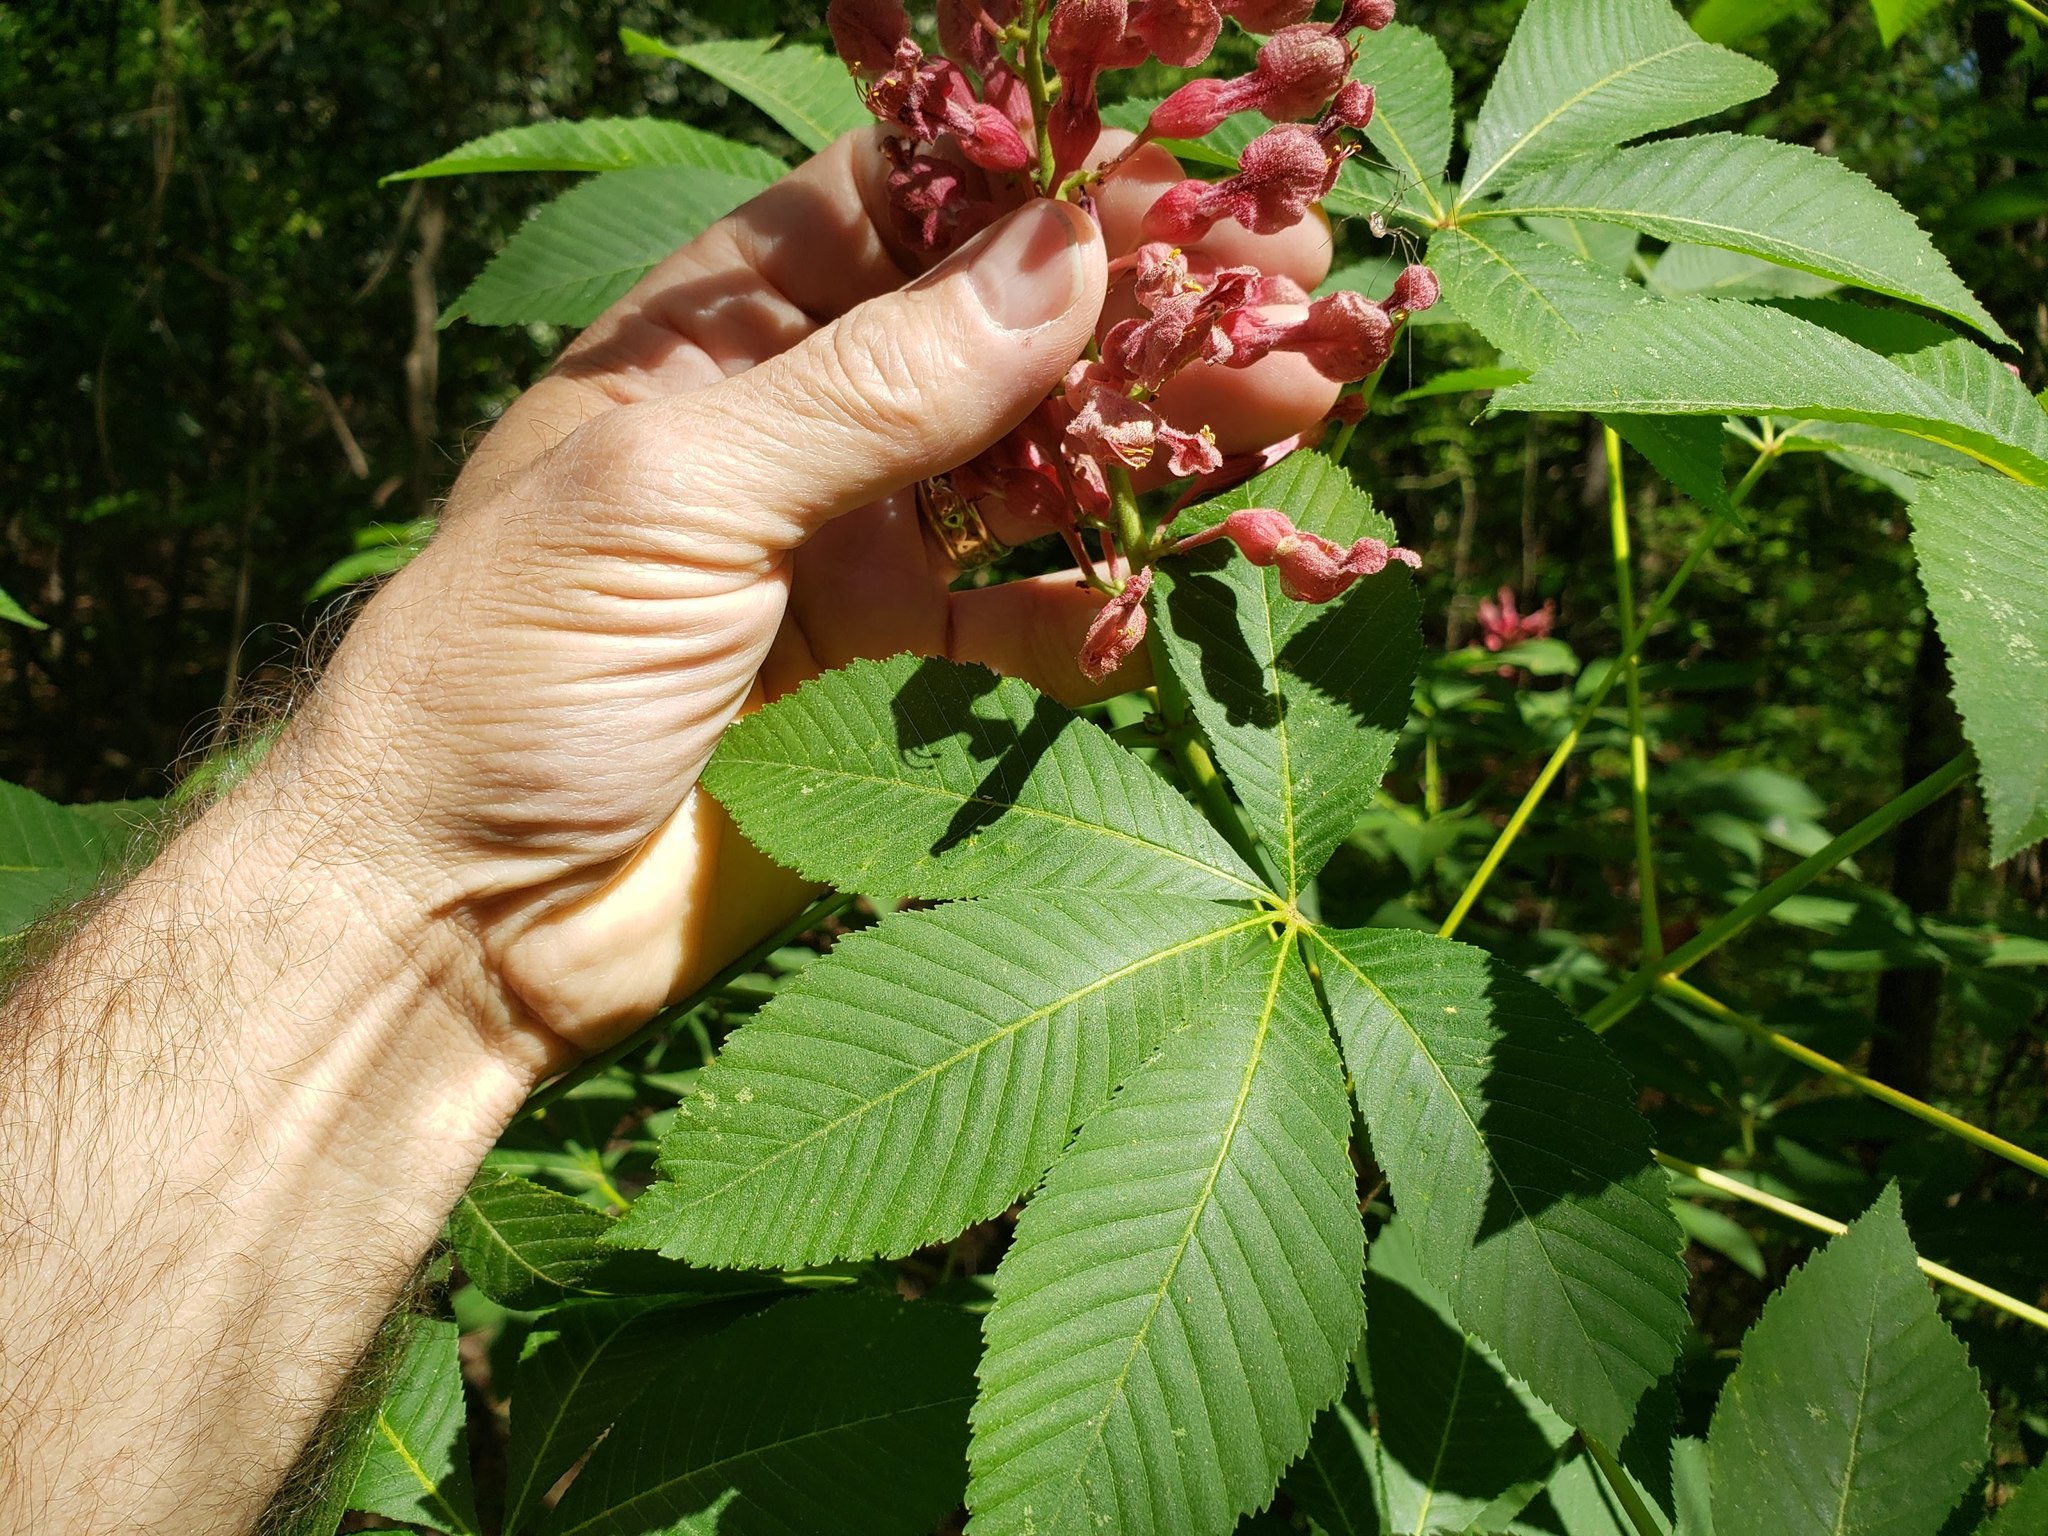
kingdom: Plantae
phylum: Tracheophyta
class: Magnoliopsida
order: Sapindales
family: Sapindaceae
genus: Aesculus
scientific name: Aesculus pavia
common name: Red buckeye
